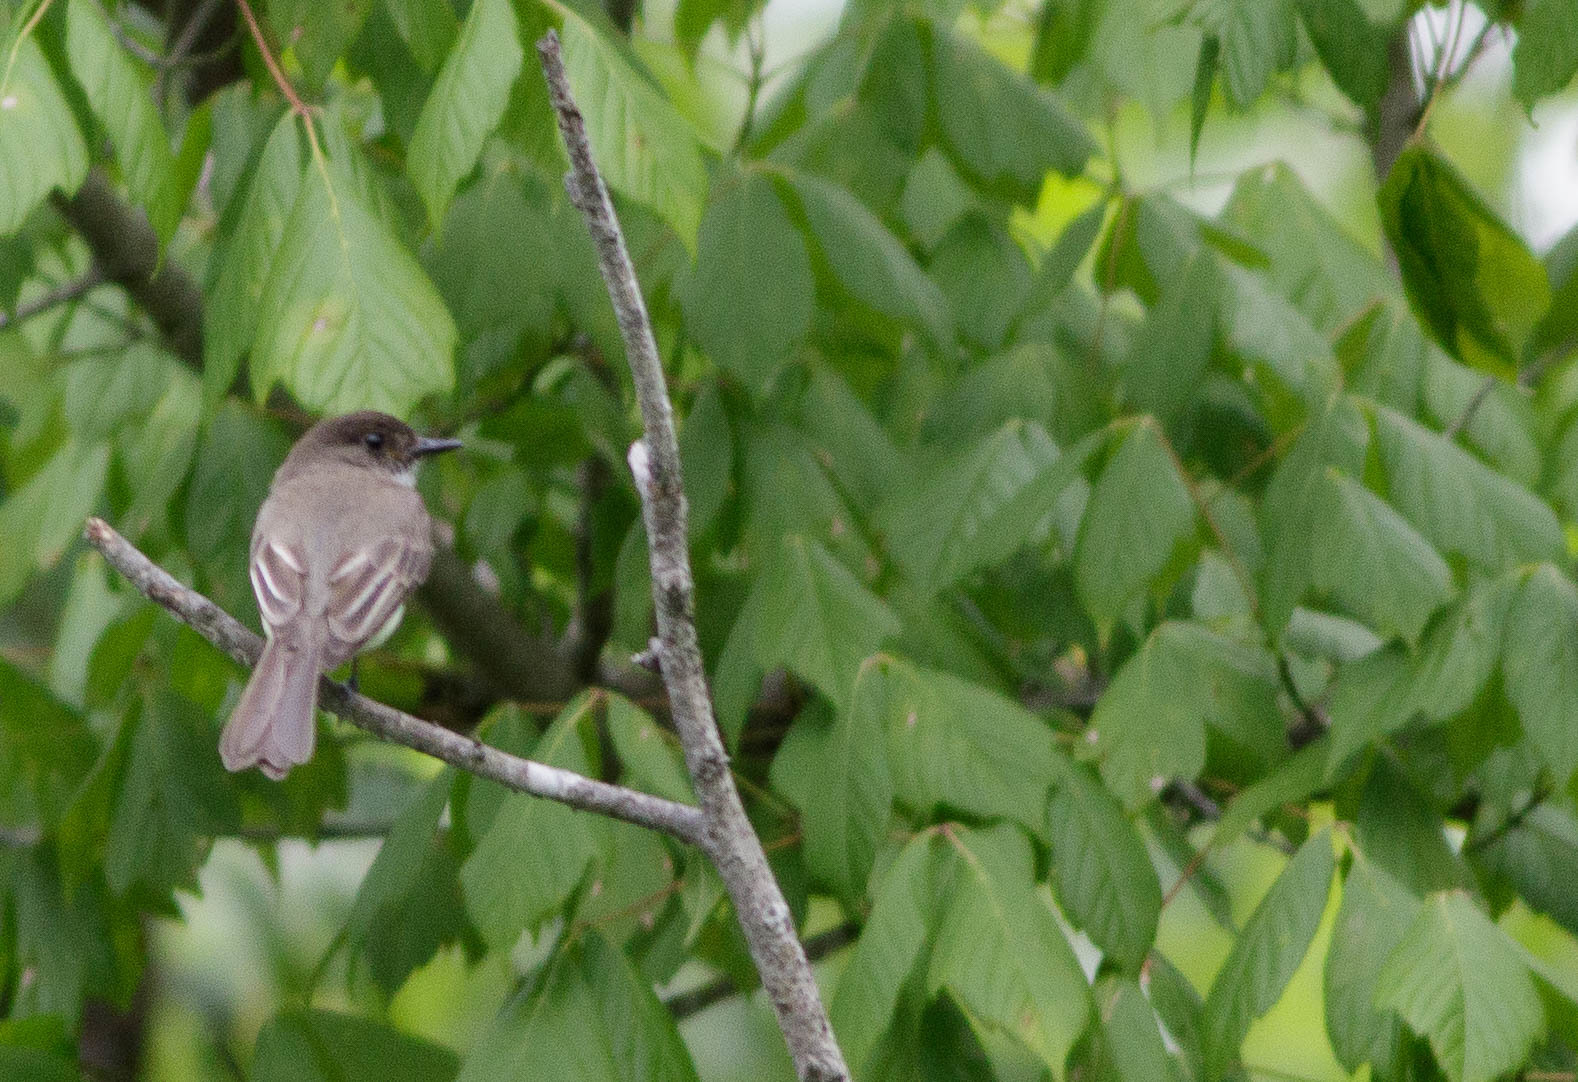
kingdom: Animalia
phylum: Chordata
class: Aves
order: Passeriformes
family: Tyrannidae
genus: Sayornis
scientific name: Sayornis phoebe
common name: Eastern phoebe
